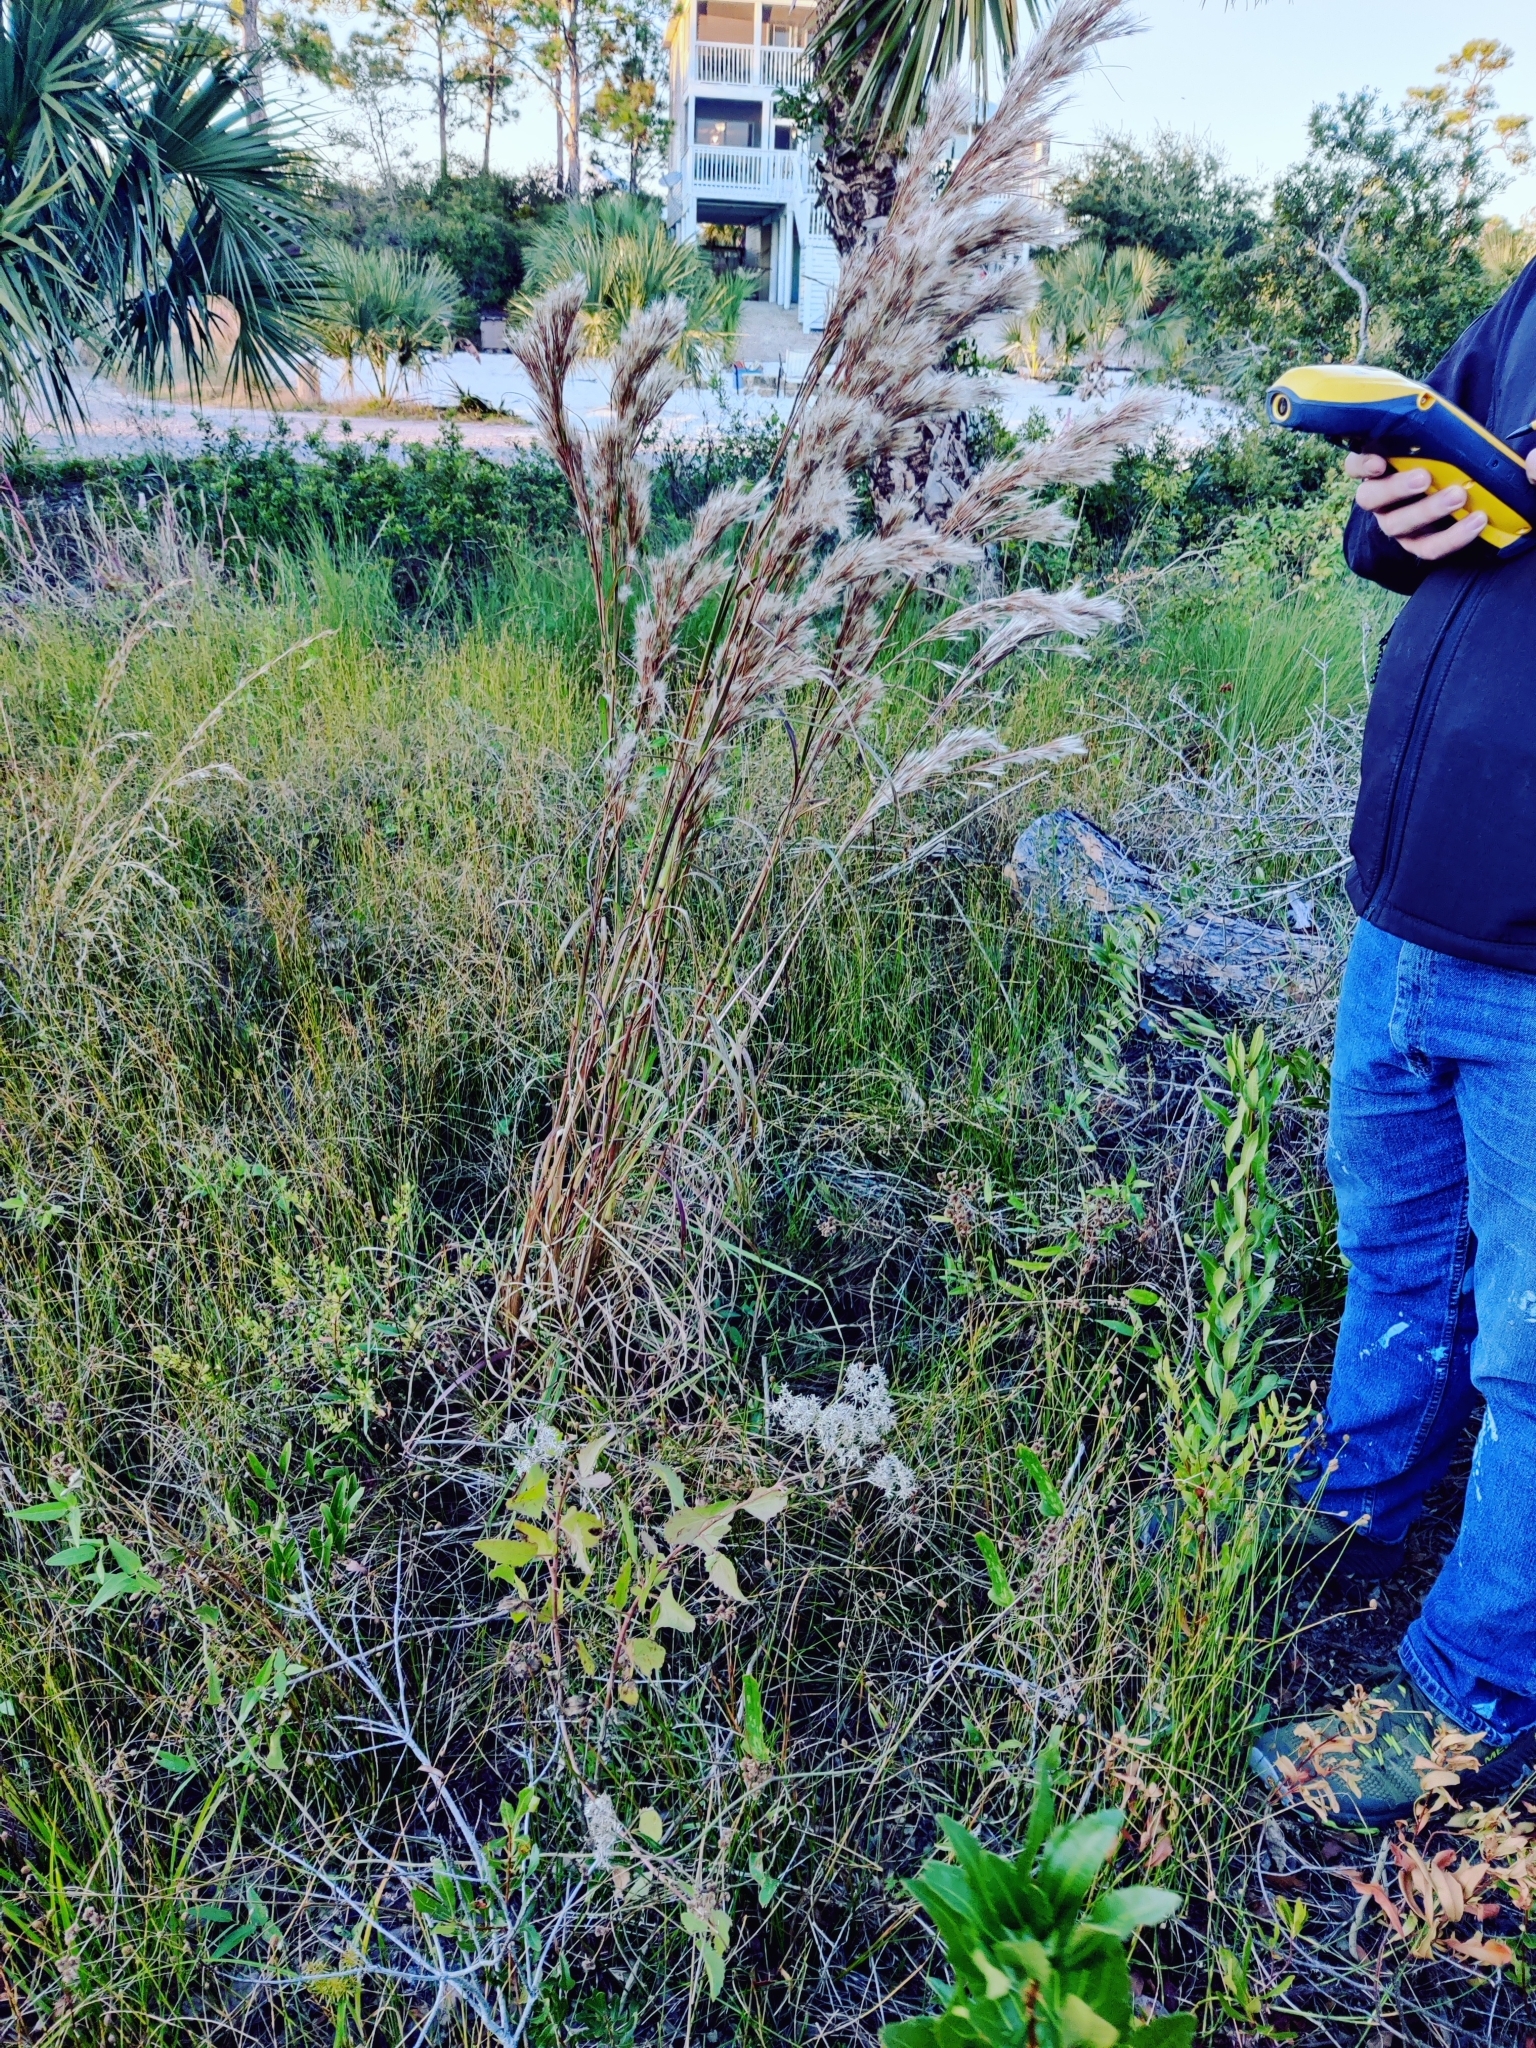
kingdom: Plantae
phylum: Tracheophyta
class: Magnoliopsida
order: Asterales
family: Asteraceae
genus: Eupatorium
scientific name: Eupatorium mikanioides
